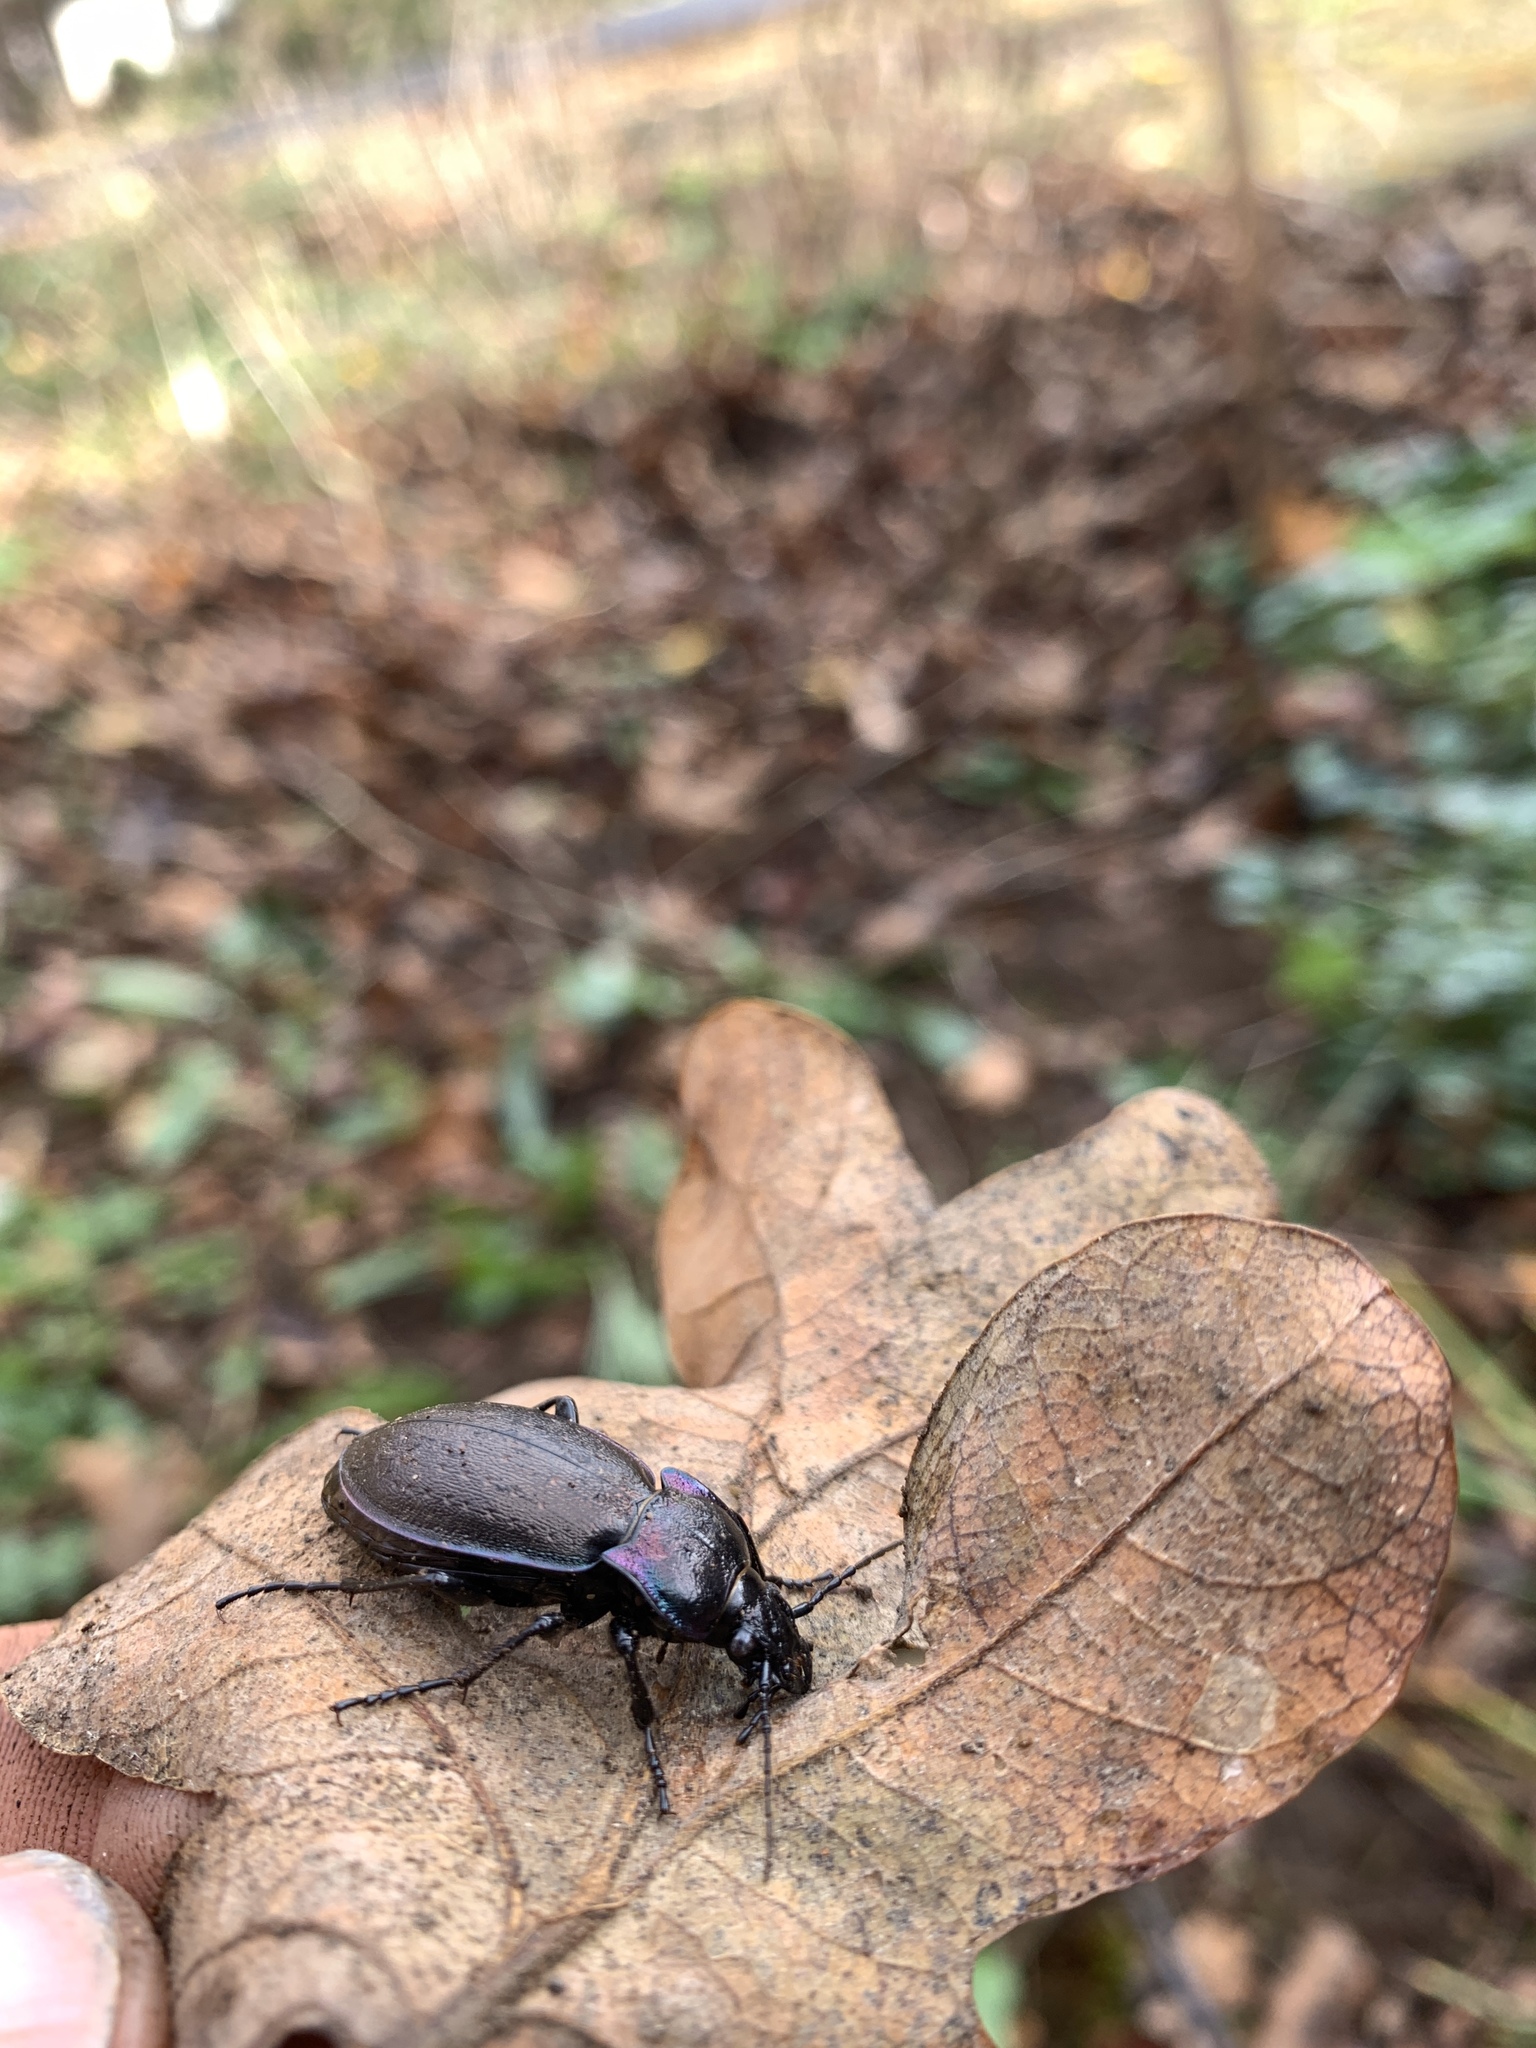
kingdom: Animalia
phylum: Arthropoda
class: Insecta
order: Coleoptera
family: Carabidae
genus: Carabus
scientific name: Carabus nemoralis
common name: European ground beetle
